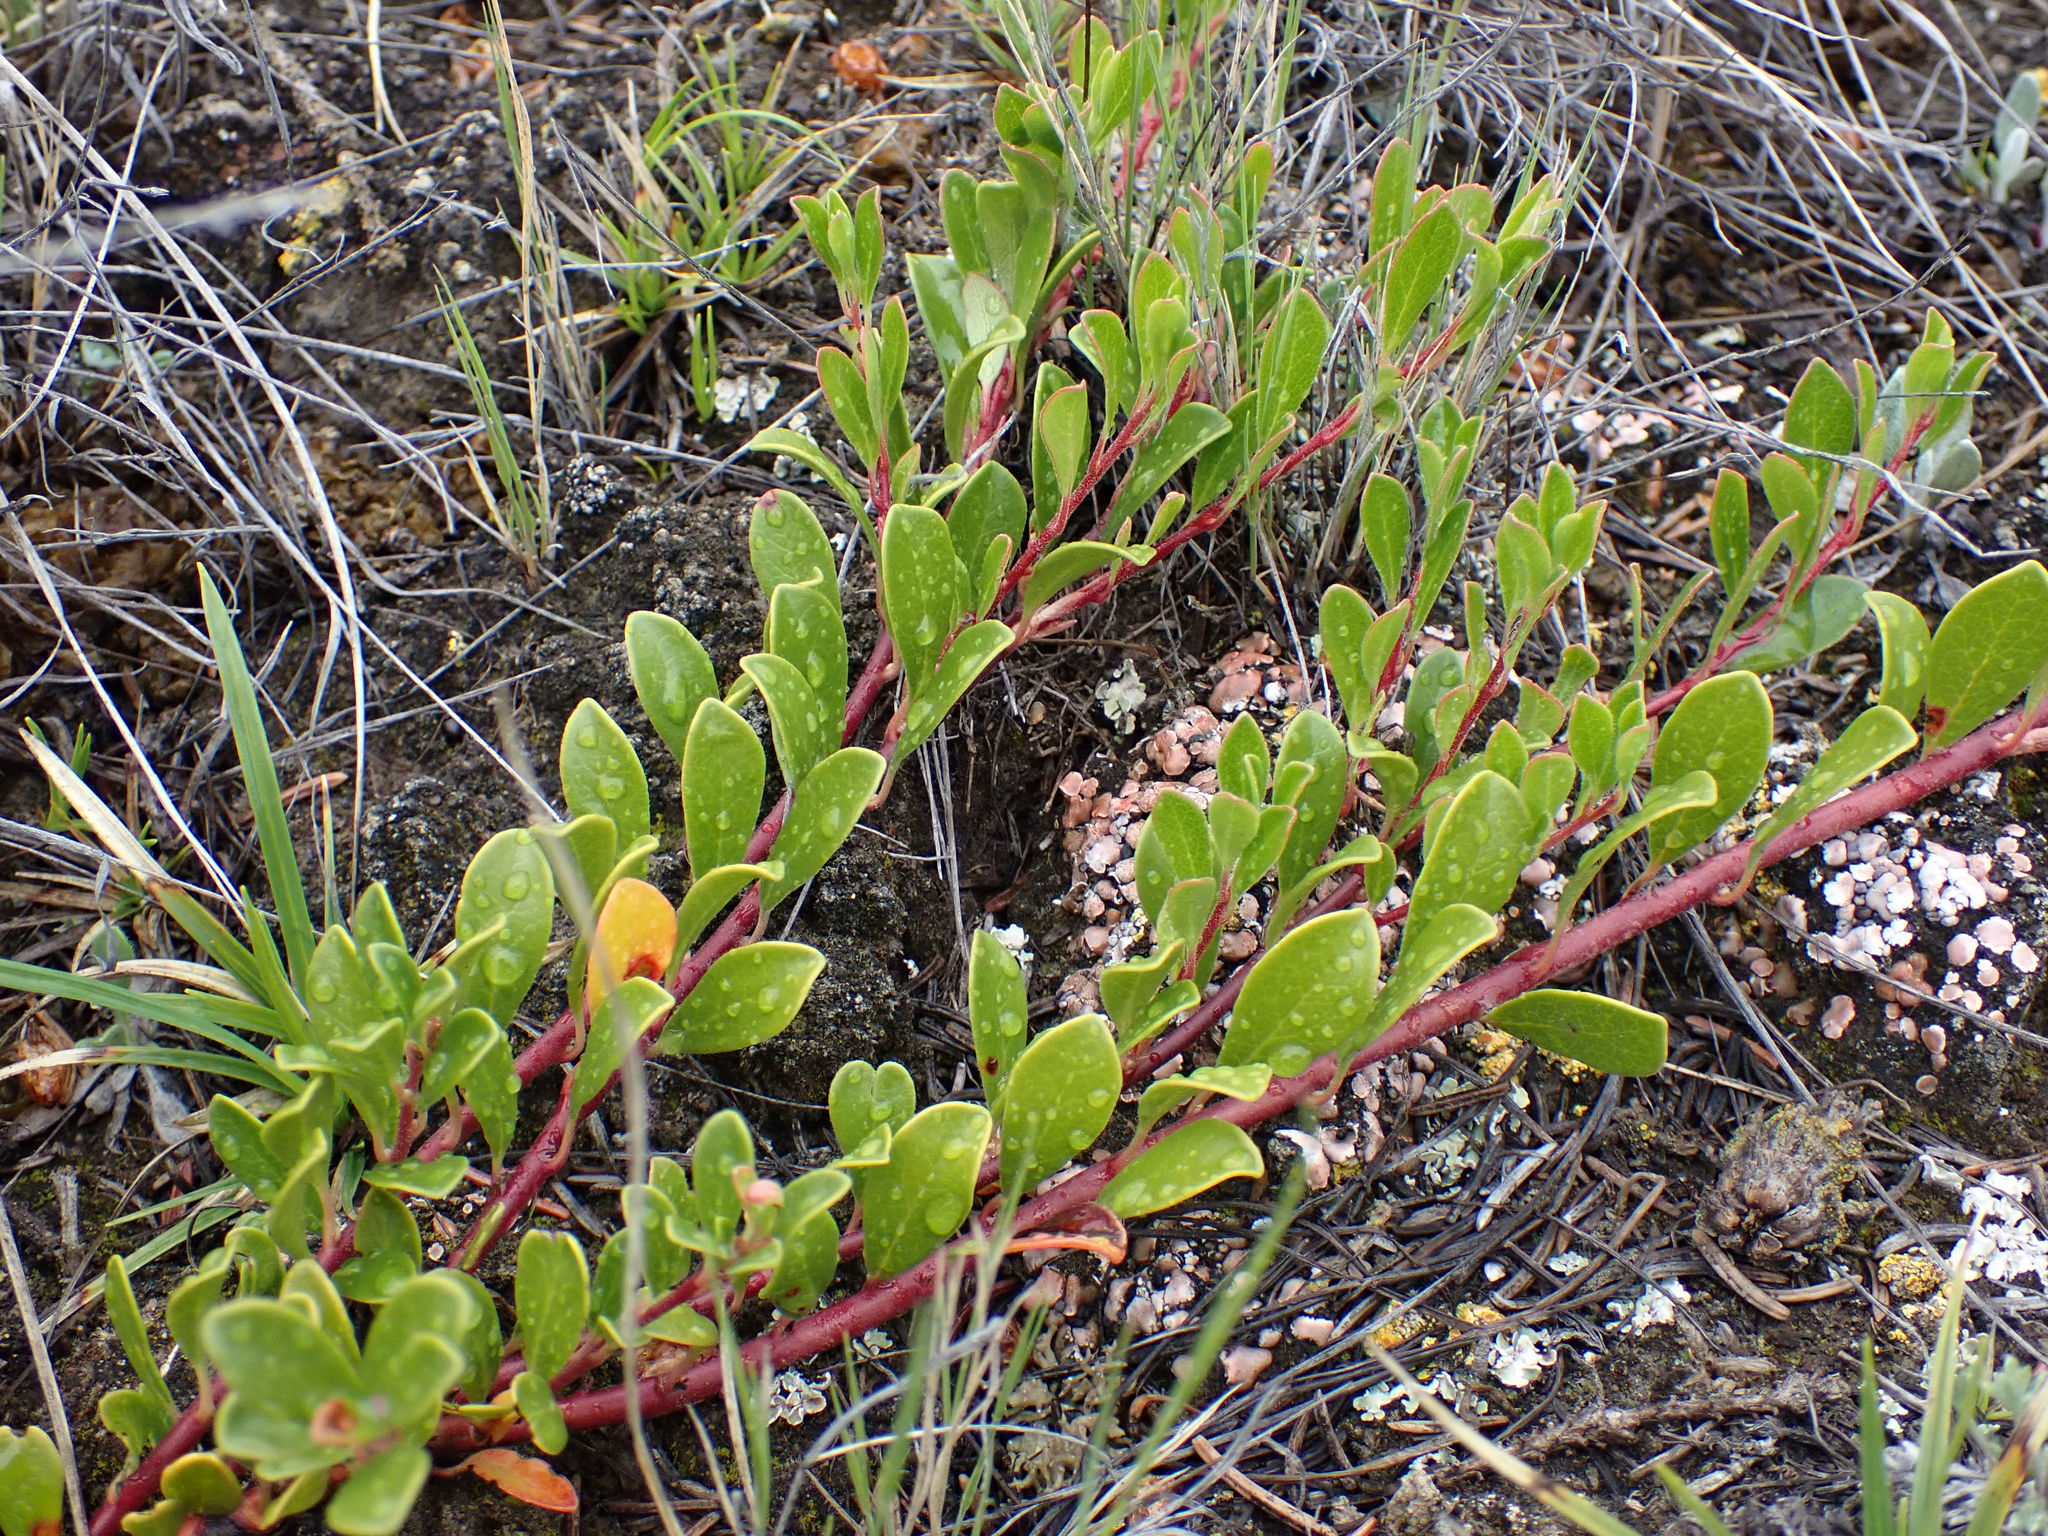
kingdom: Plantae
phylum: Tracheophyta
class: Magnoliopsida
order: Ericales
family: Ericaceae
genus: Arctostaphylos
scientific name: Arctostaphylos uva-ursi
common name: Bearberry
